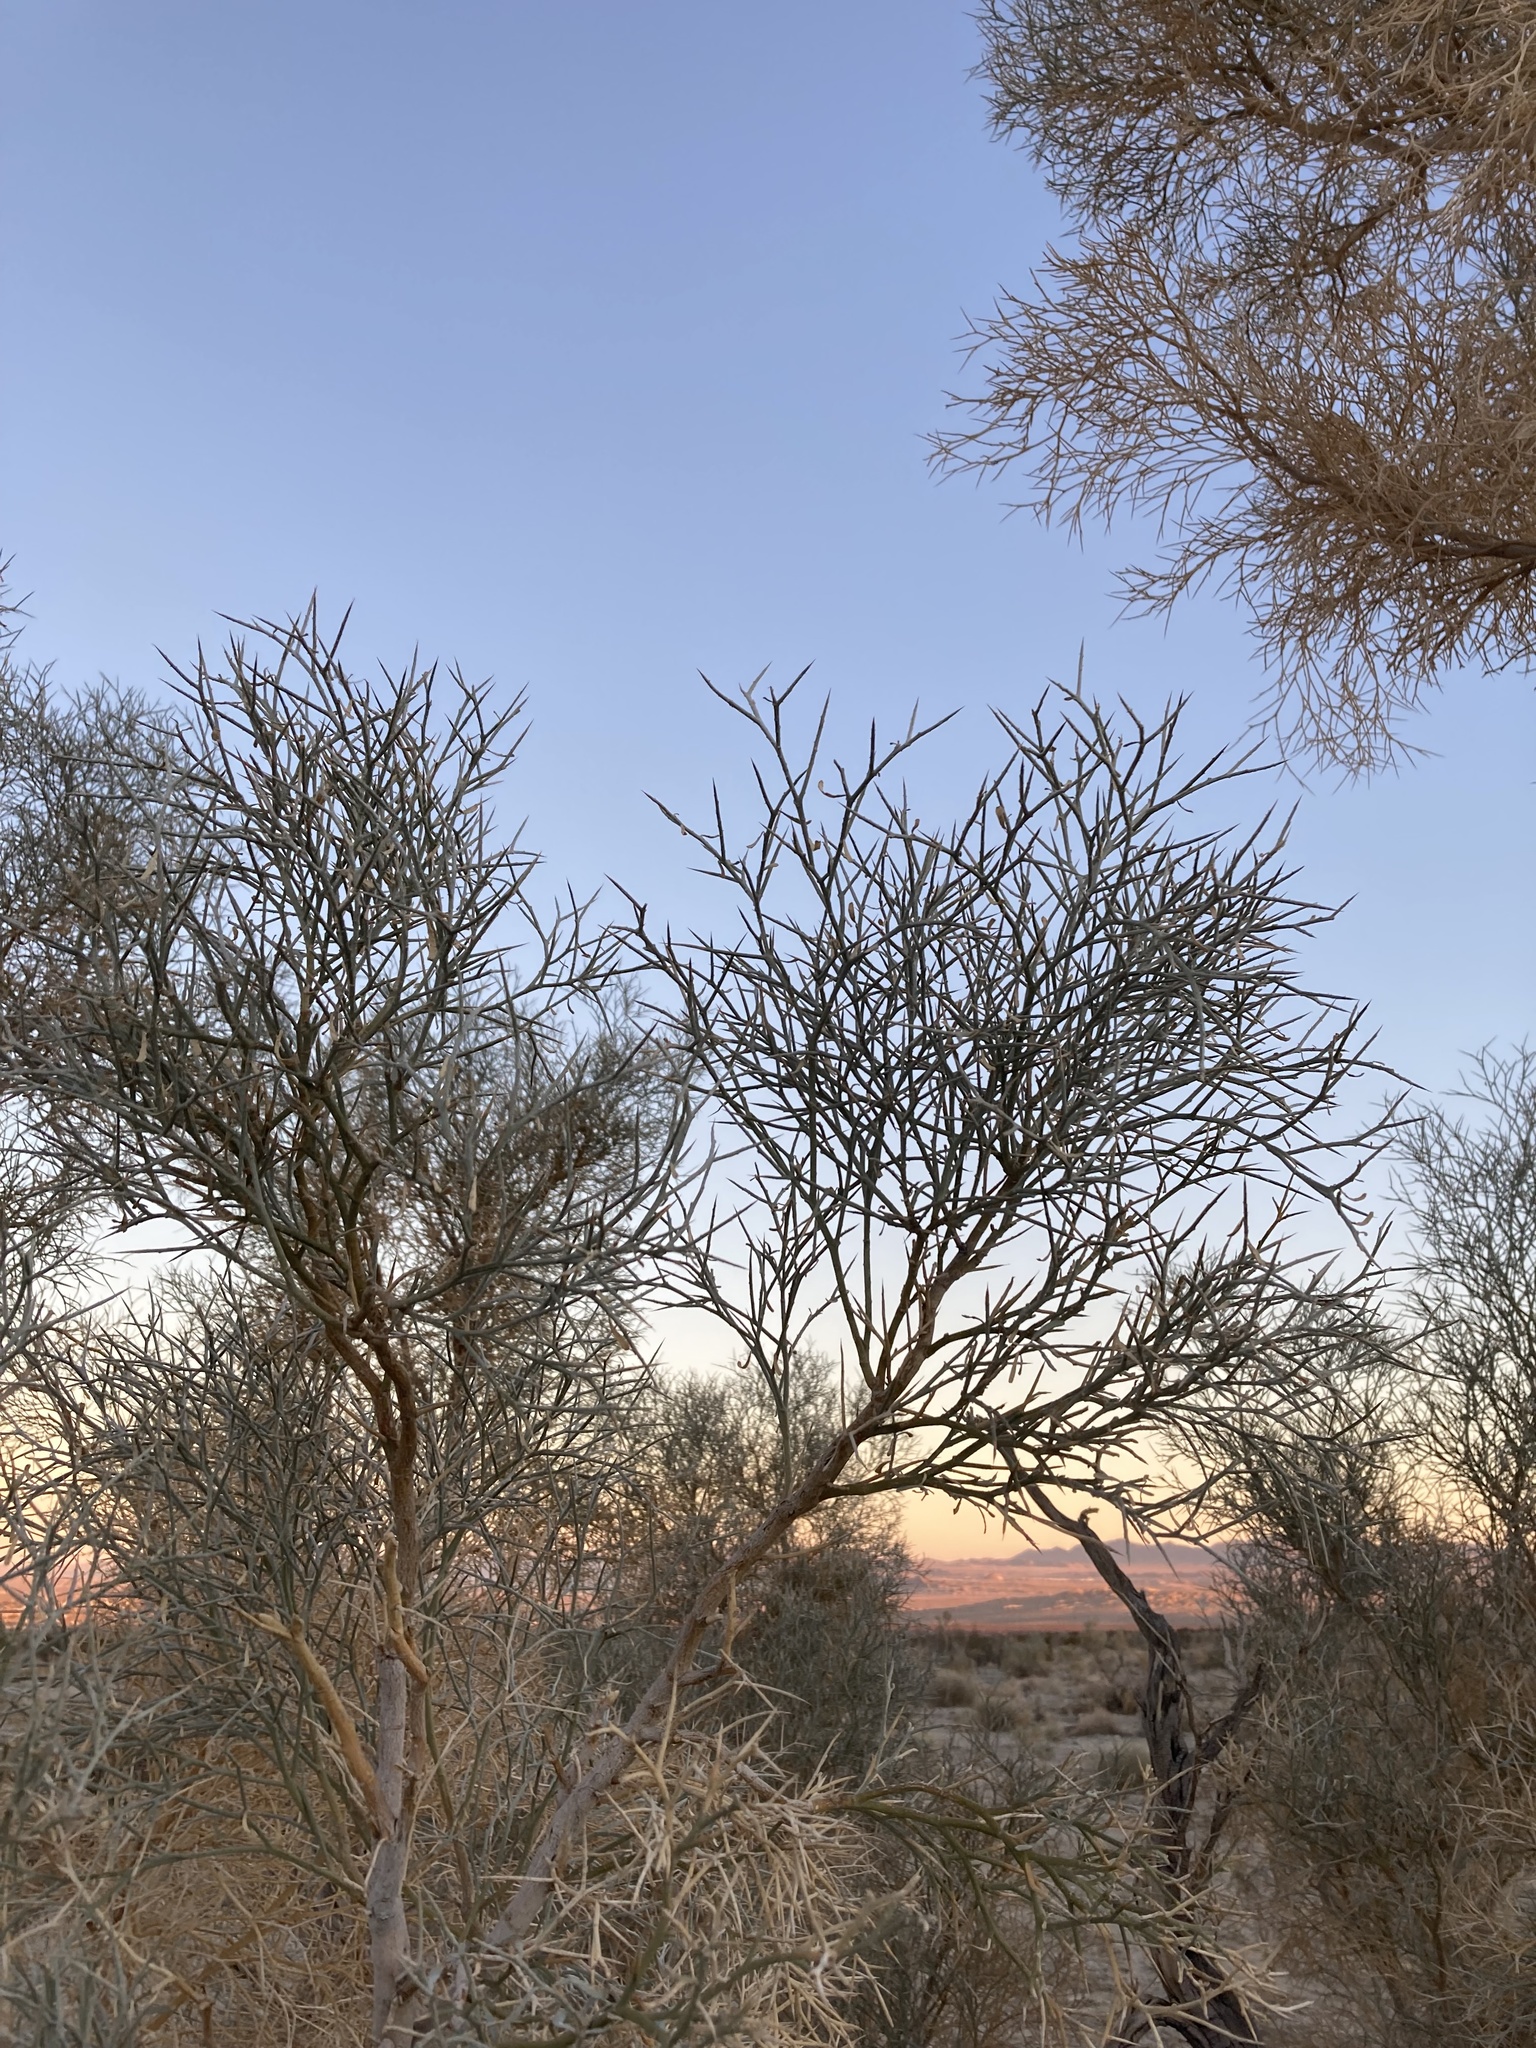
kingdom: Plantae
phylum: Tracheophyta
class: Magnoliopsida
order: Fabales
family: Fabaceae
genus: Psorothamnus
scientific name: Psorothamnus spinosus
